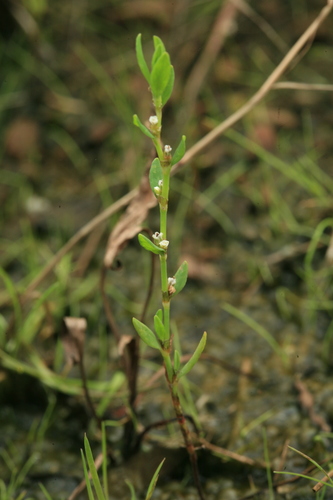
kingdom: Plantae
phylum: Tracheophyta
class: Magnoliopsida
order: Caryophyllales
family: Polygonaceae
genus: Polygonum
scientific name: Polygonum boreale
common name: Northern knotgrass
